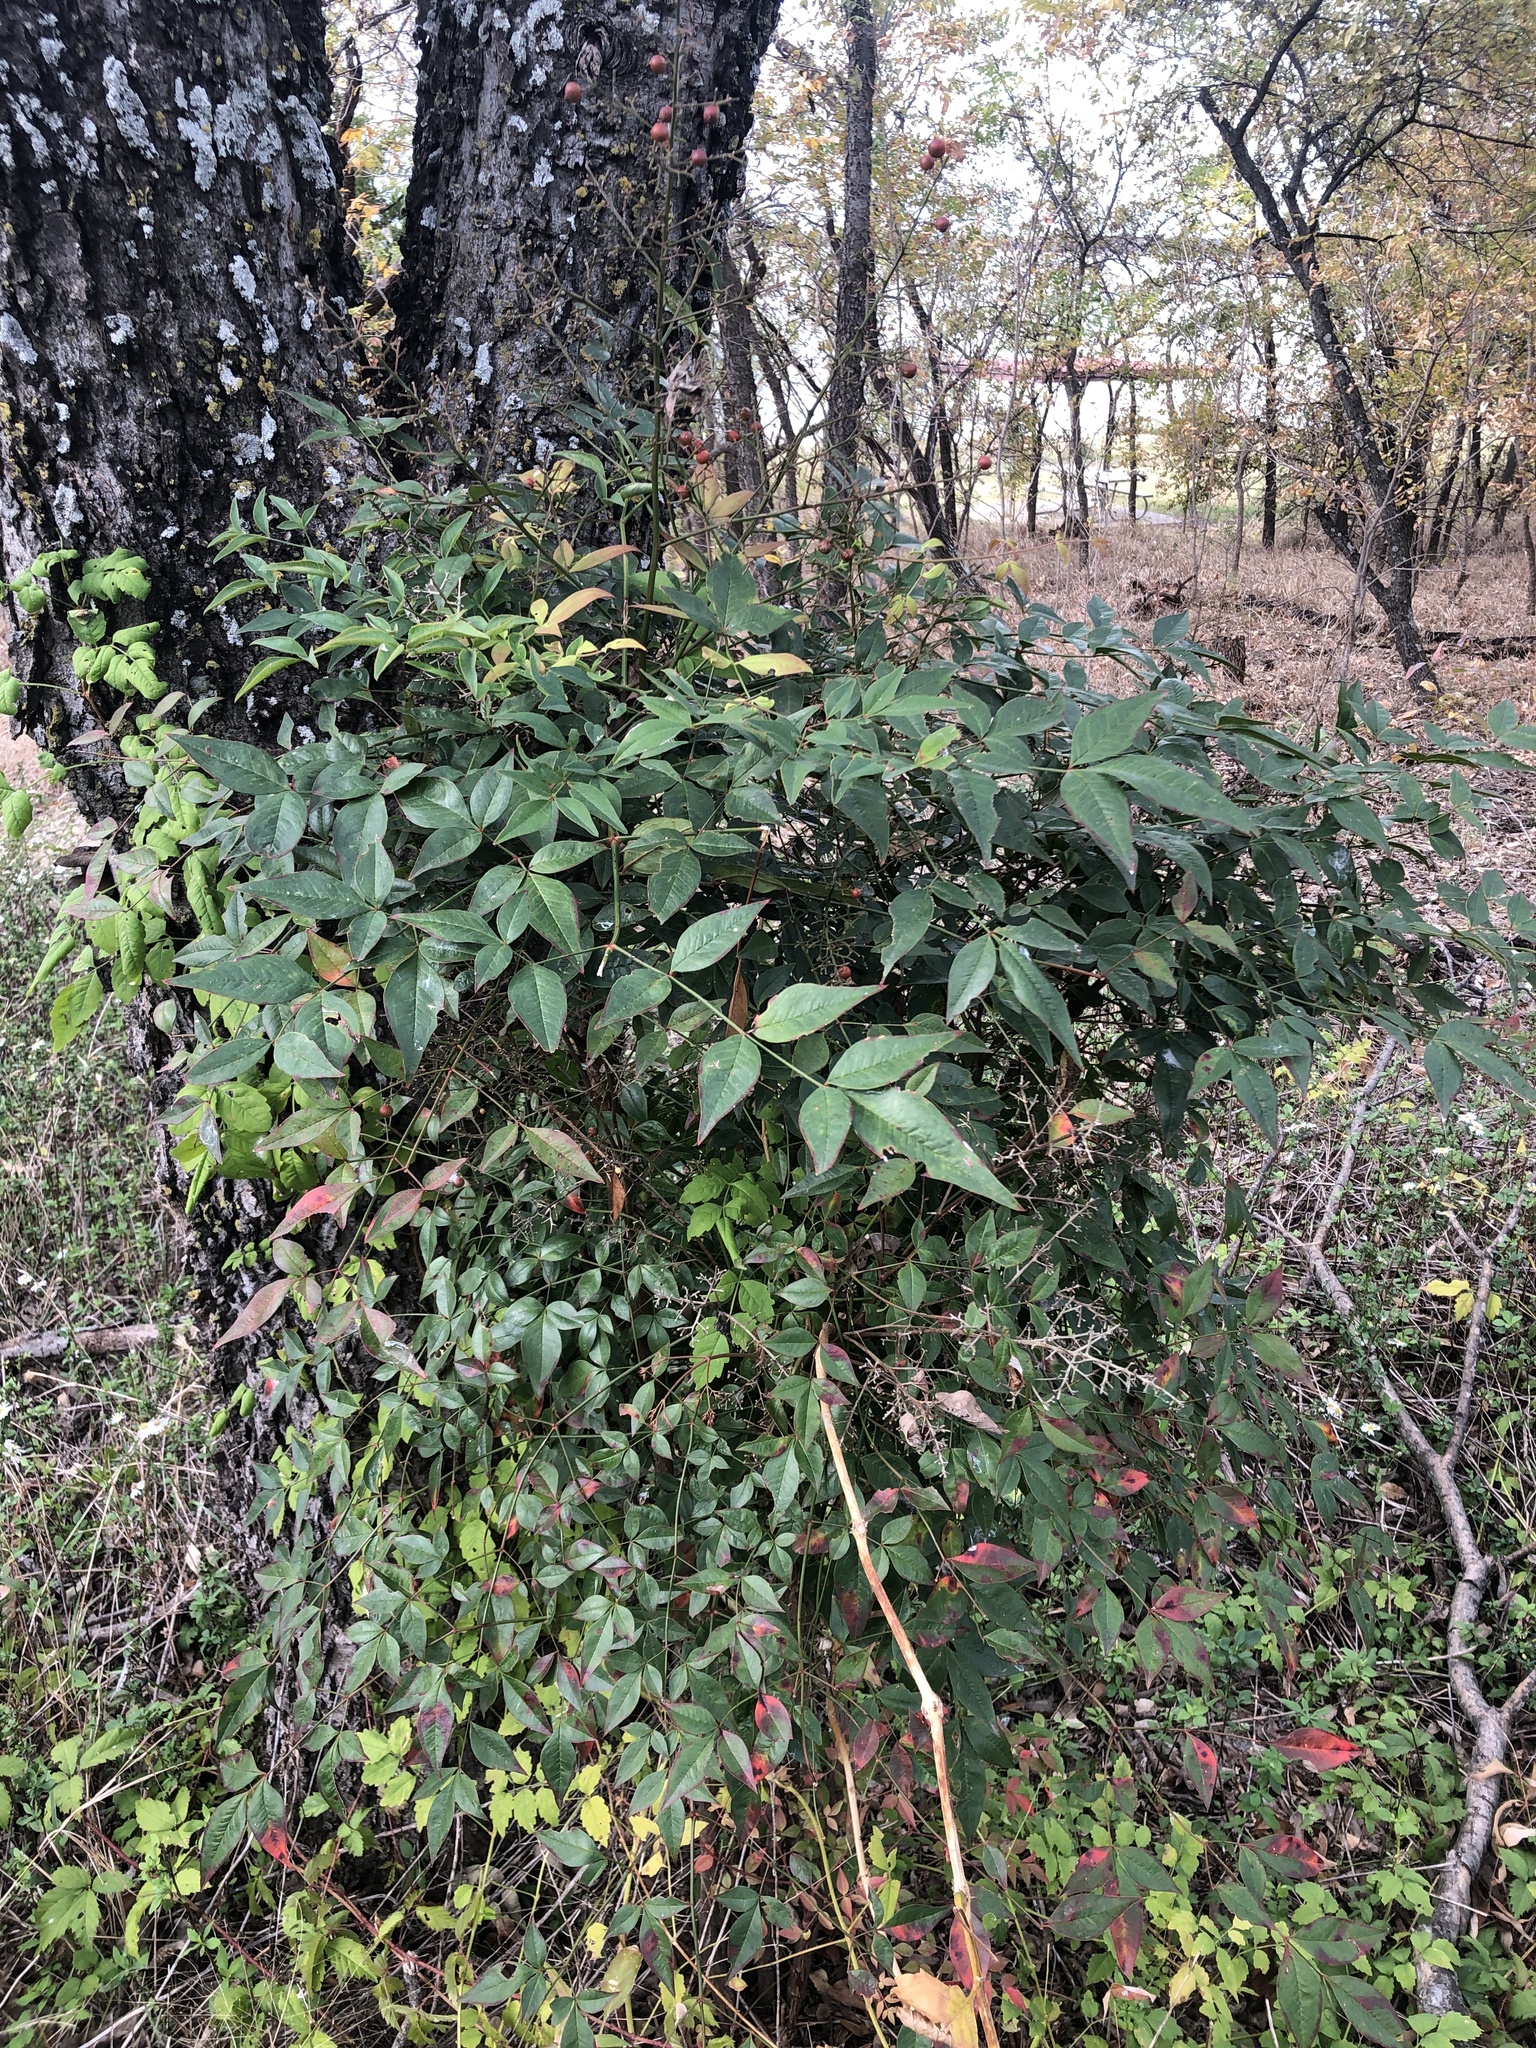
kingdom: Plantae
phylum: Tracheophyta
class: Magnoliopsida
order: Ranunculales
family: Berberidaceae
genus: Nandina
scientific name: Nandina domestica
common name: Sacred bamboo
